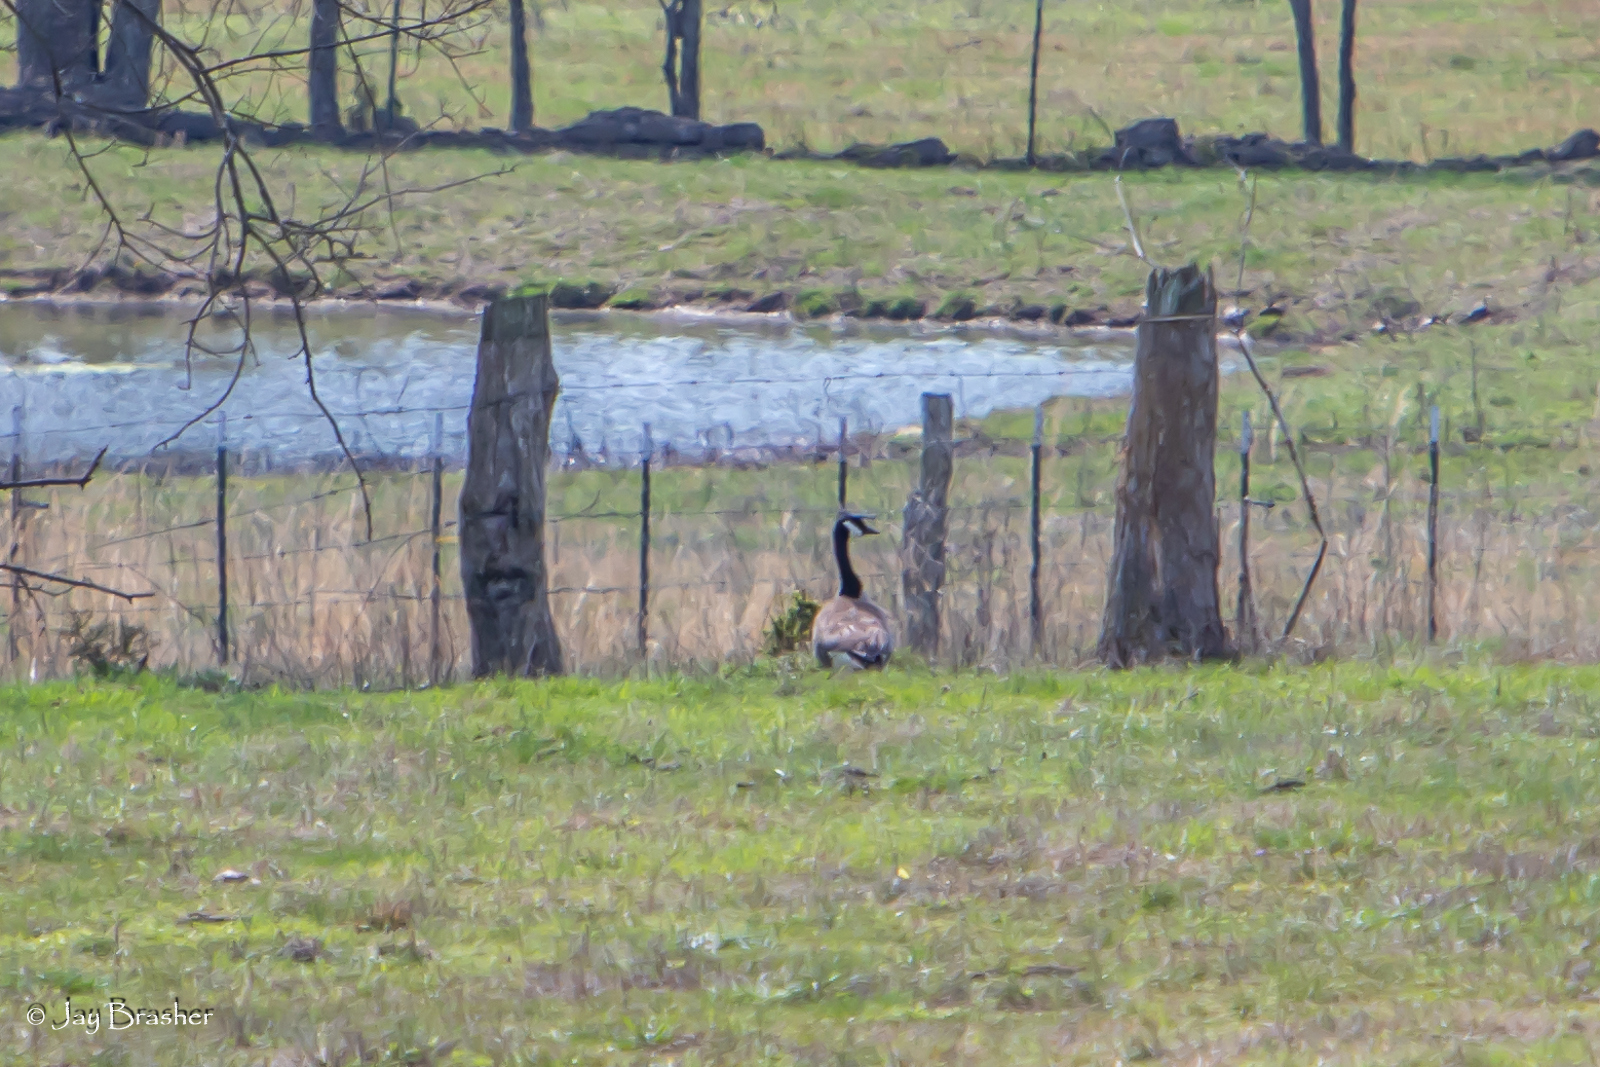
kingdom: Animalia
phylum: Chordata
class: Aves
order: Anseriformes
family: Anatidae
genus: Branta
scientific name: Branta canadensis
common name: Canada goose
